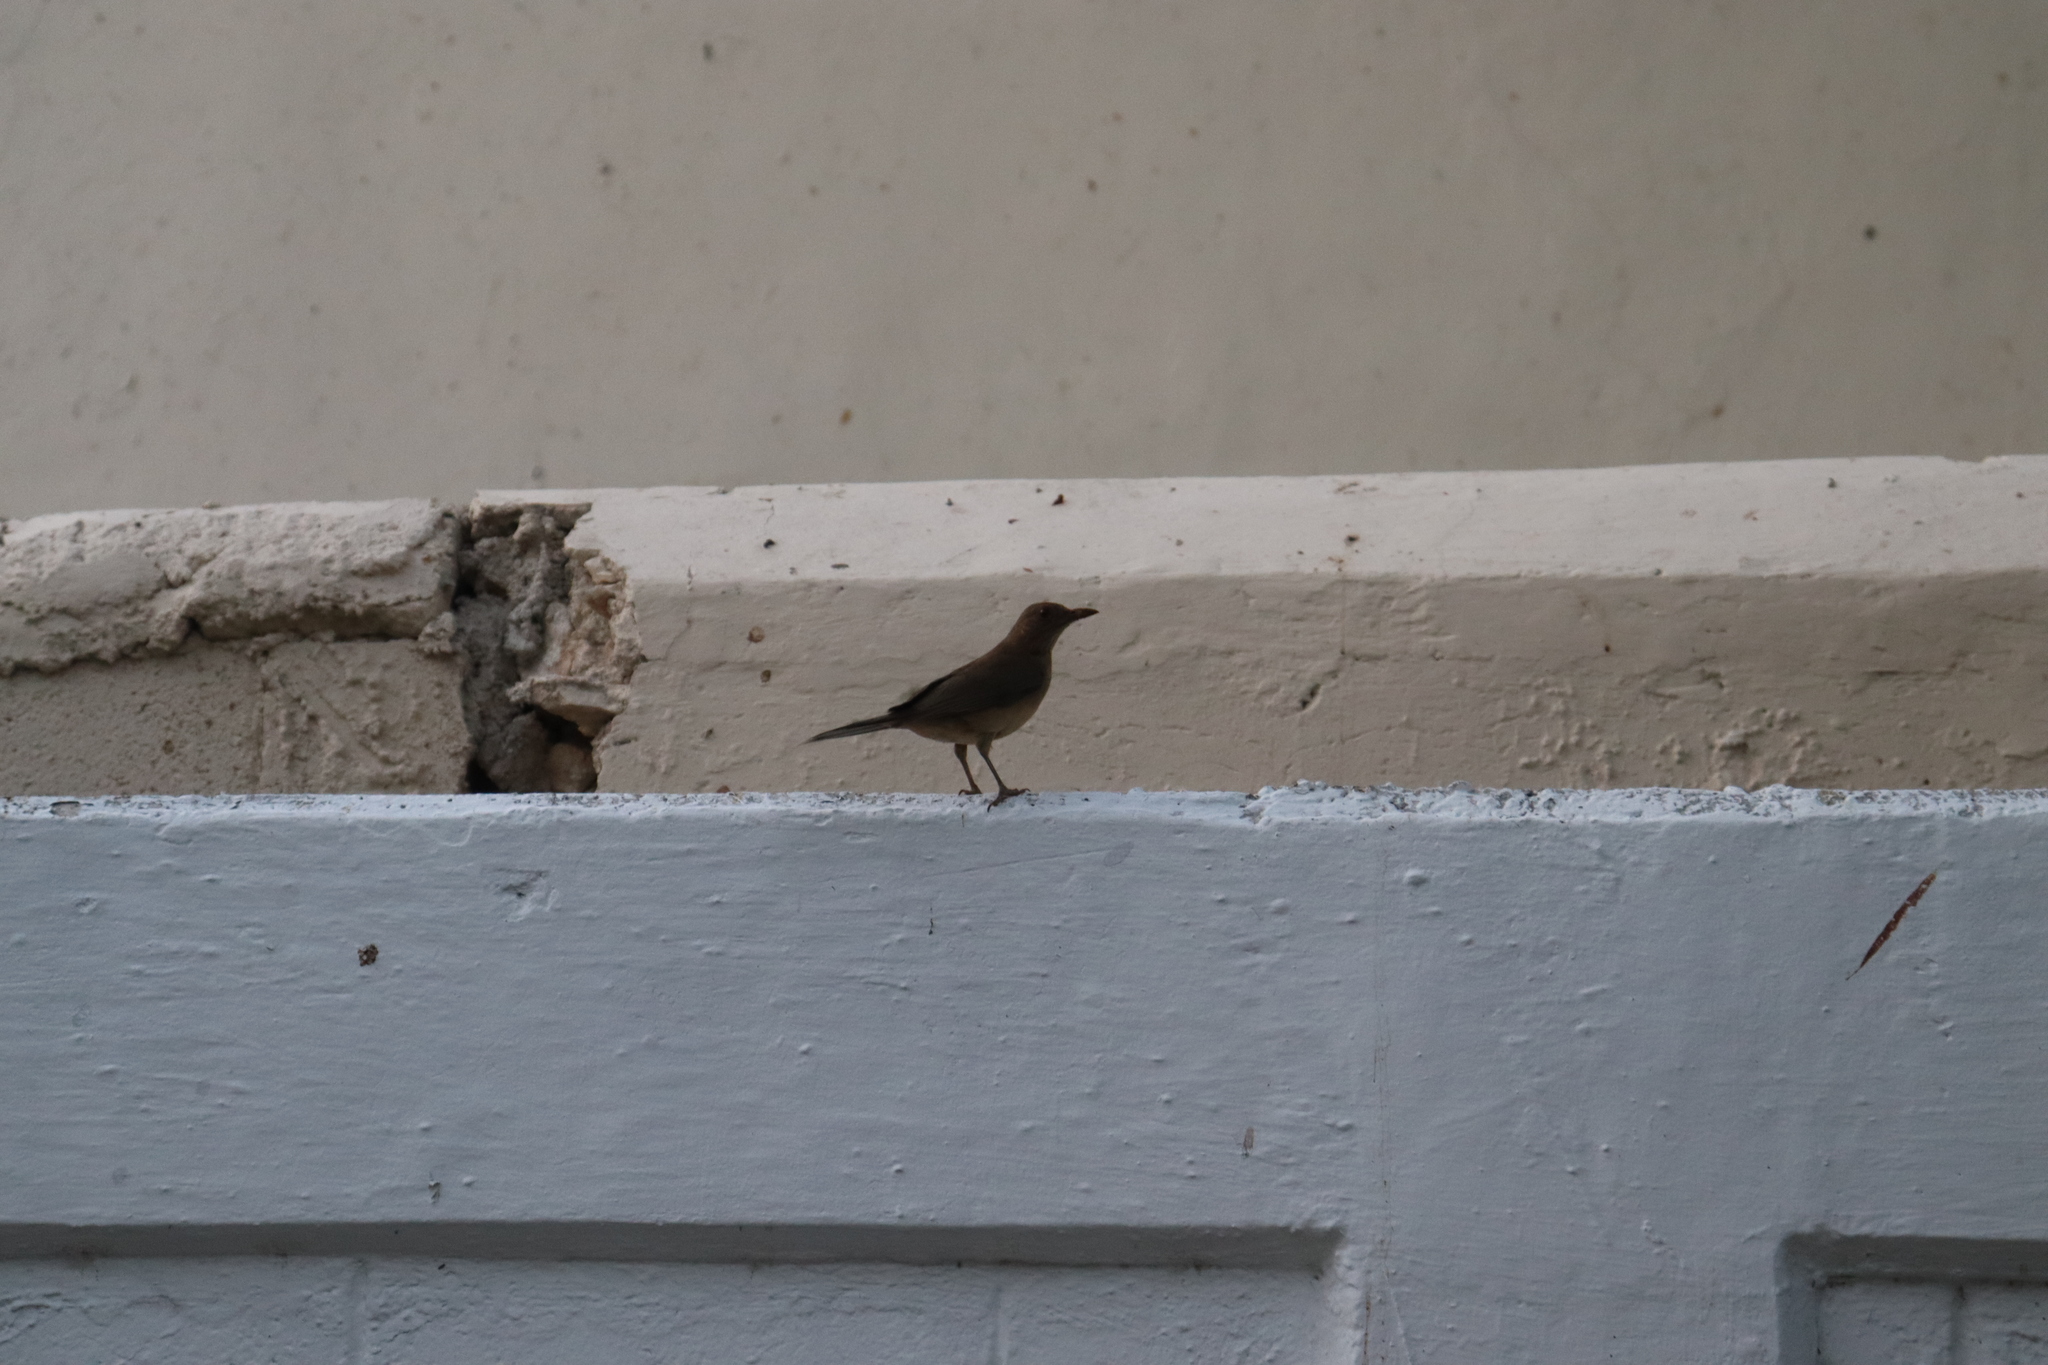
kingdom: Animalia
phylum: Chordata
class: Aves
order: Passeriformes
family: Turdidae
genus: Turdus
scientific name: Turdus grayi
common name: Clay-colored thrush
